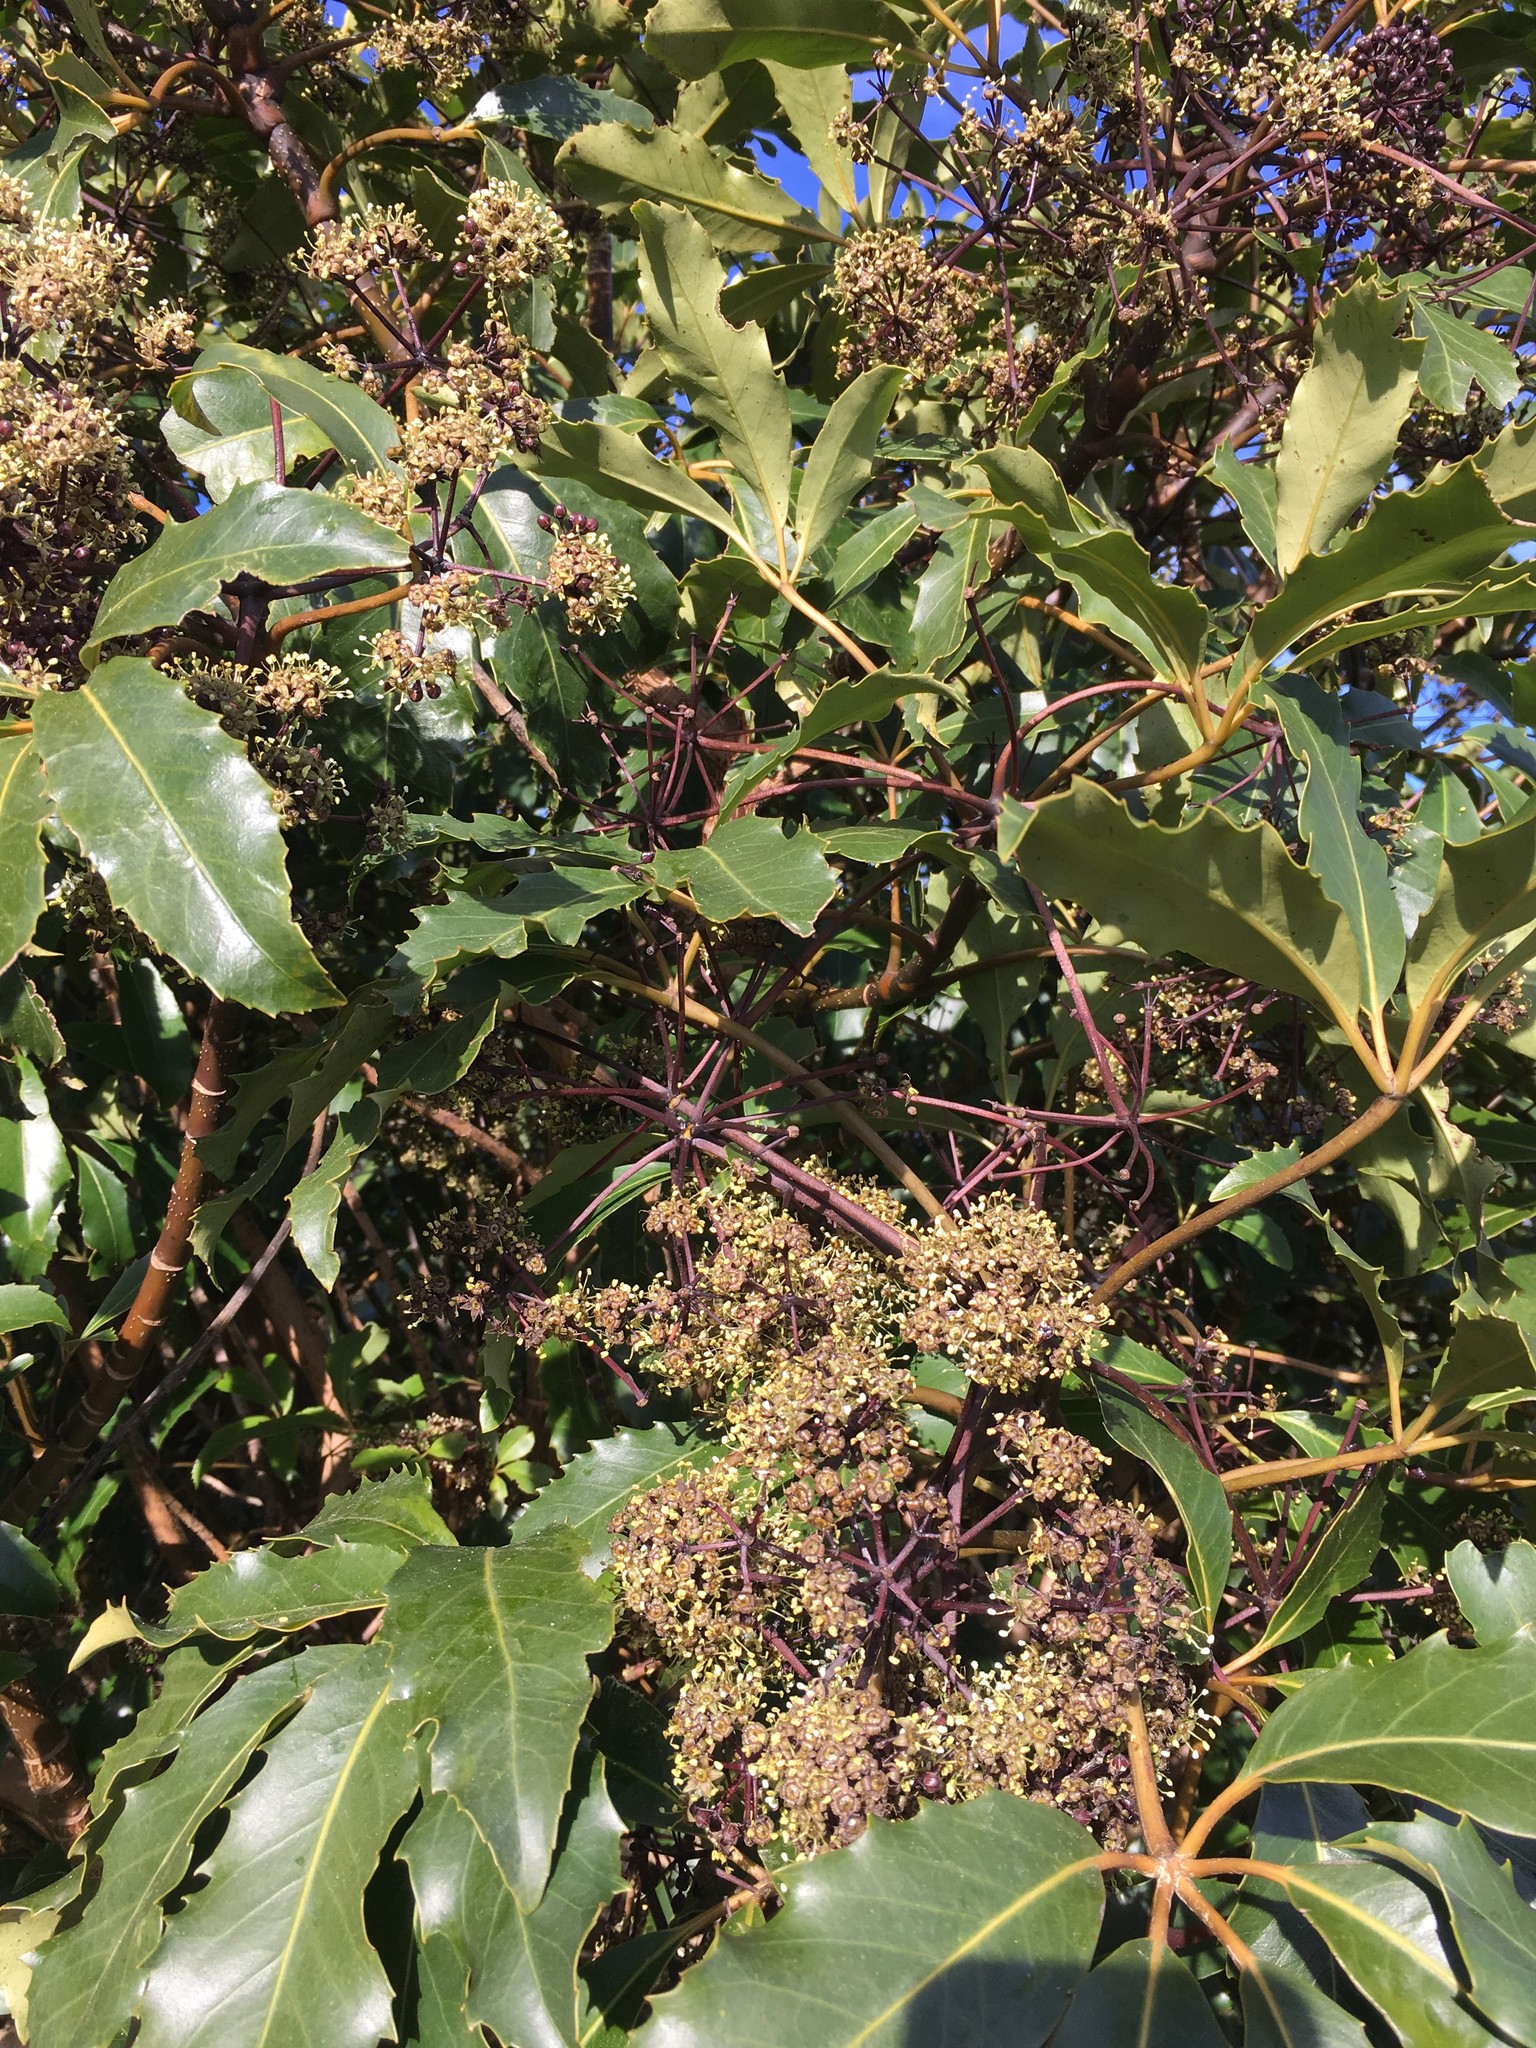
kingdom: Plantae
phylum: Tracheophyta
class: Magnoliopsida
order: Apiales
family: Araliaceae
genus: Neopanax
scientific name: Neopanax arboreus
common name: Five-fingers
